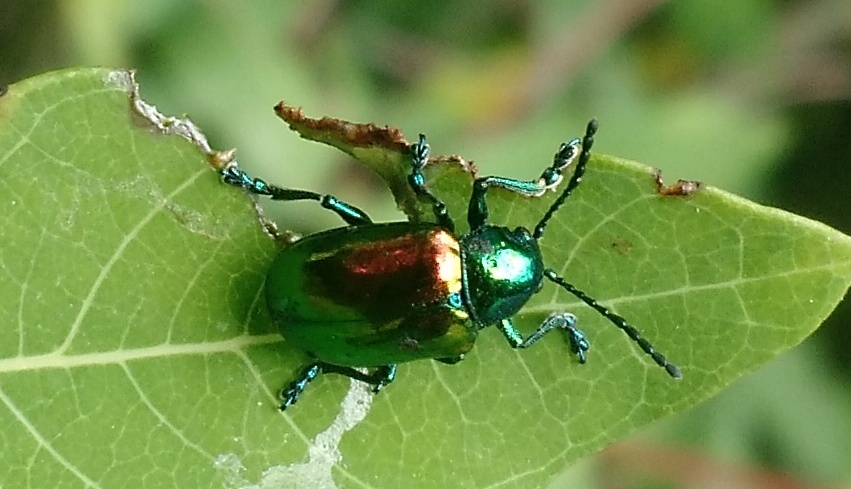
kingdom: Animalia
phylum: Arthropoda
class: Insecta
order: Coleoptera
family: Chrysomelidae
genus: Chrysochus
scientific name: Chrysochus auratus
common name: Dogbane leaf beetle
